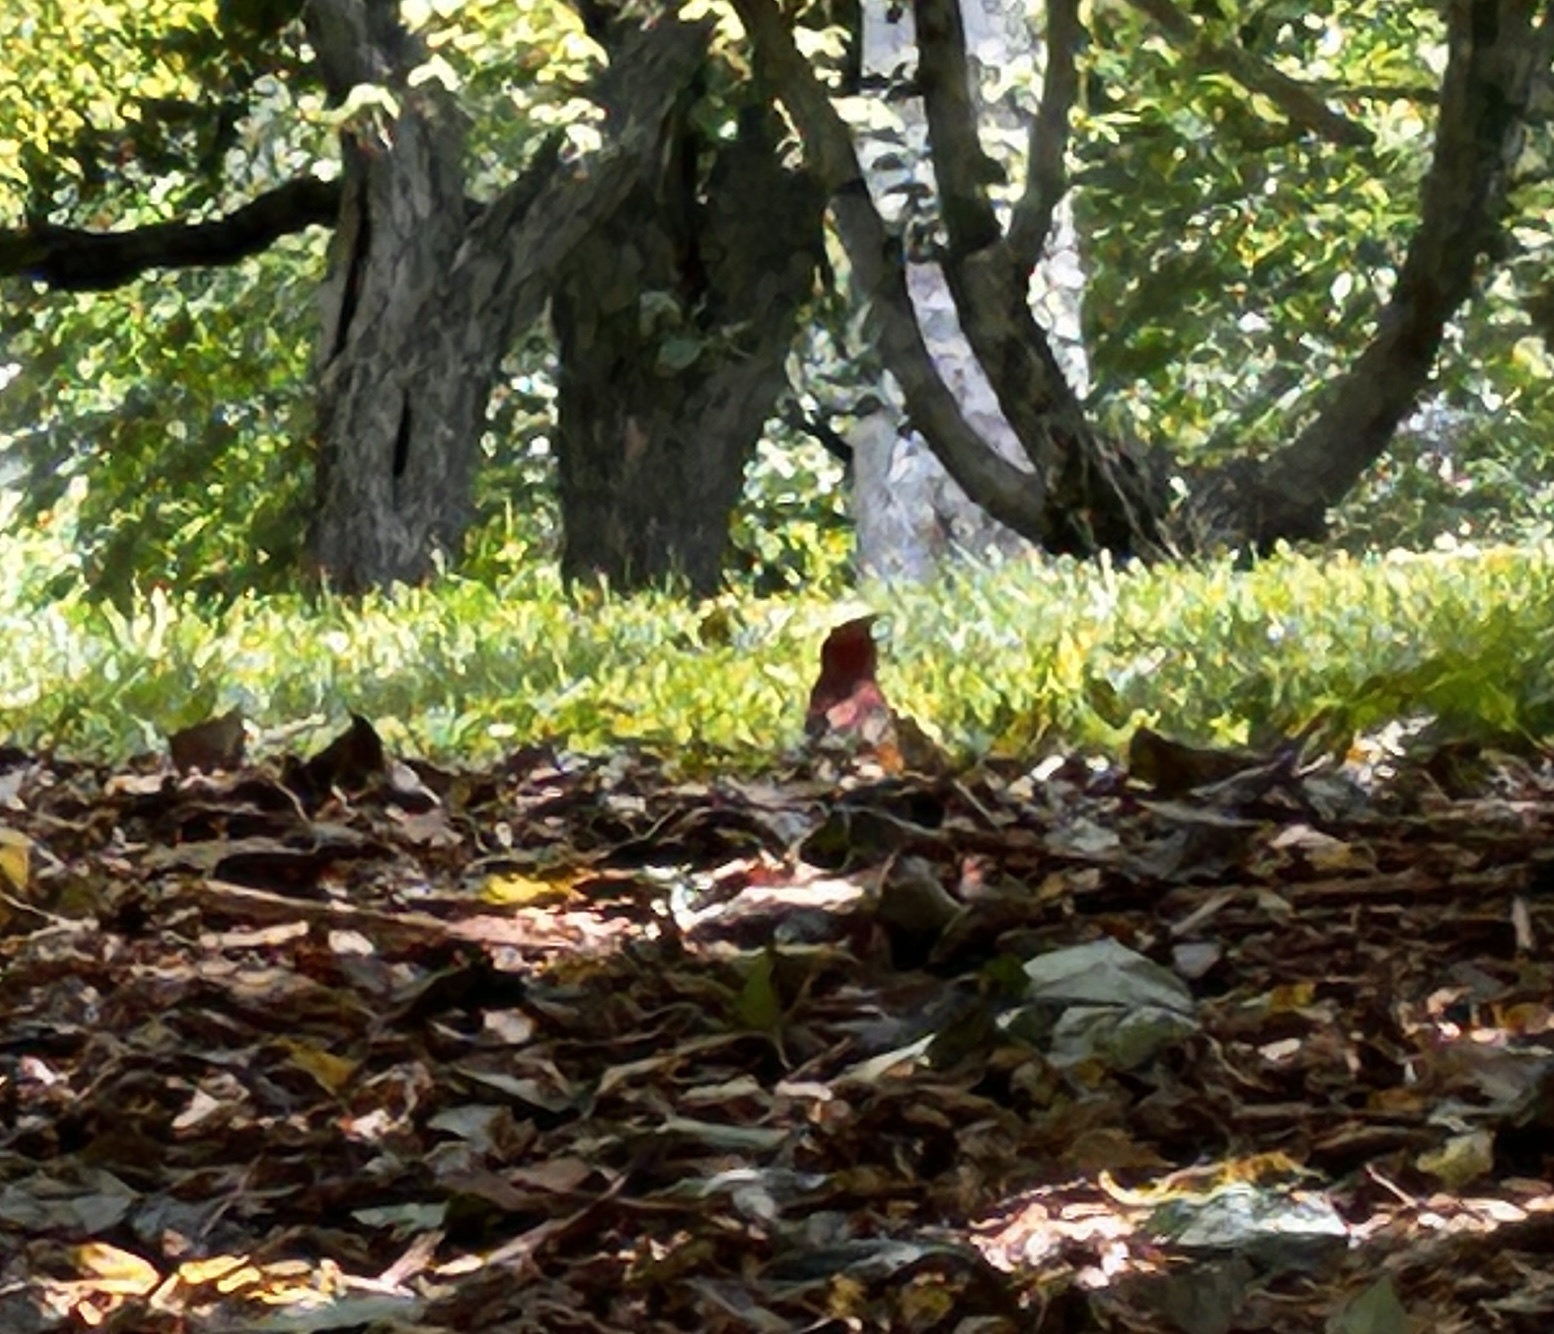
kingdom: Animalia
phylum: Chordata
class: Aves
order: Passeriformes
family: Cardinalidae
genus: Cardinalis
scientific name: Cardinalis cardinalis
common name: Northern cardinal
